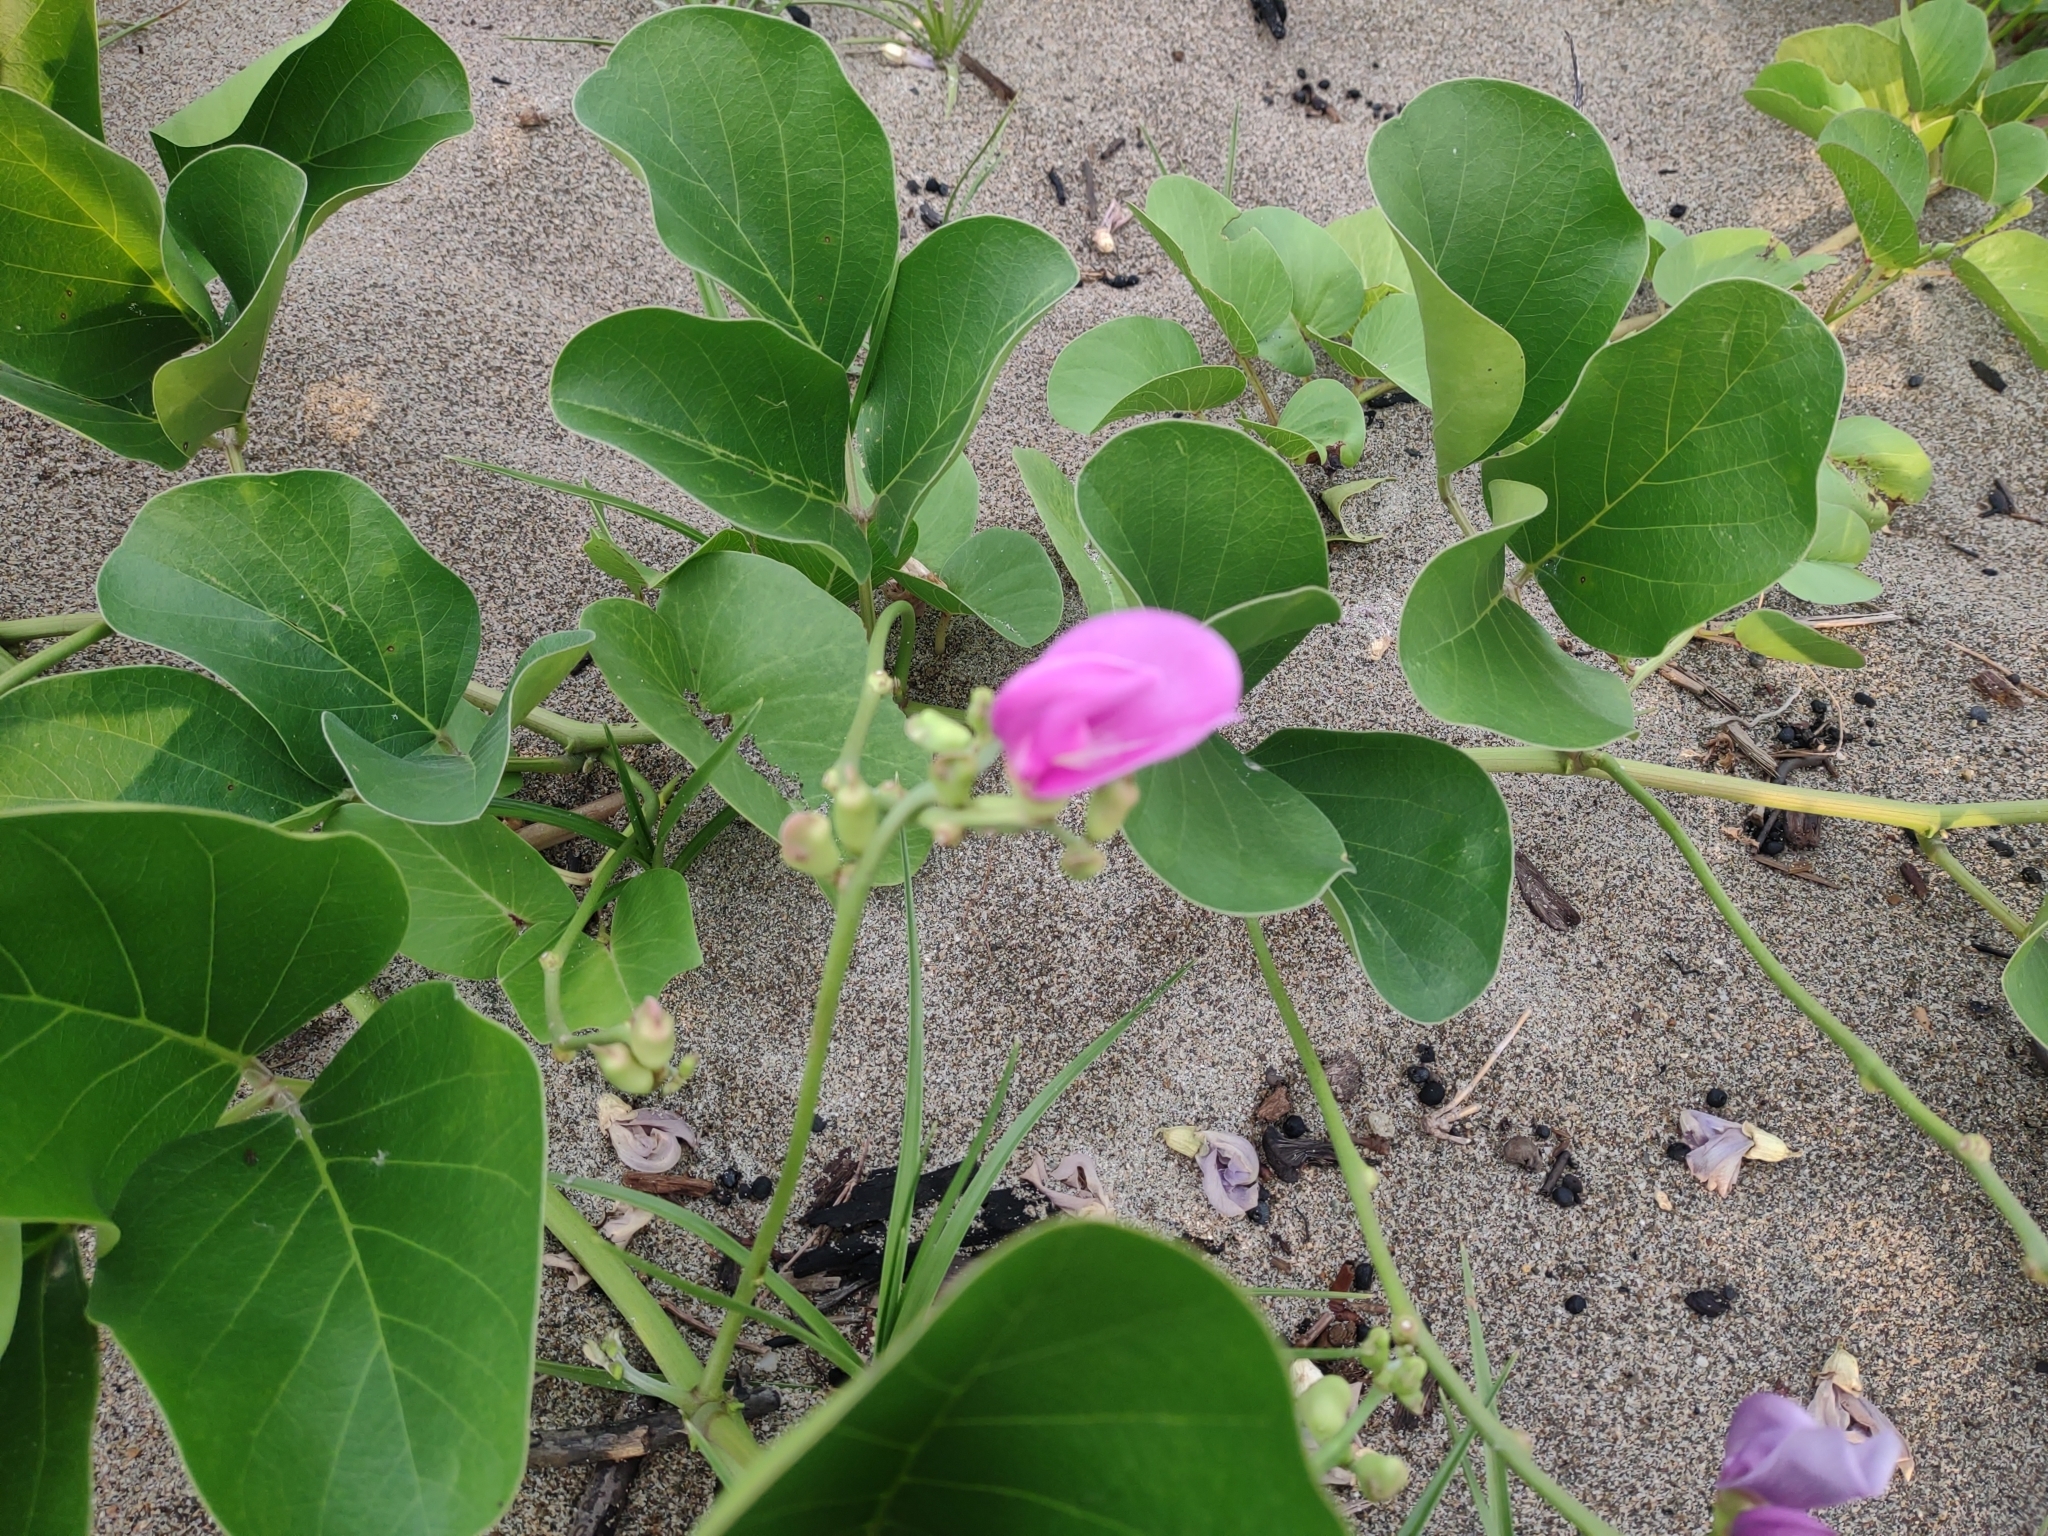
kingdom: Plantae
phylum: Tracheophyta
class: Magnoliopsida
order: Fabales
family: Fabaceae
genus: Canavalia
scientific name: Canavalia rosea
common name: Beach-bean
